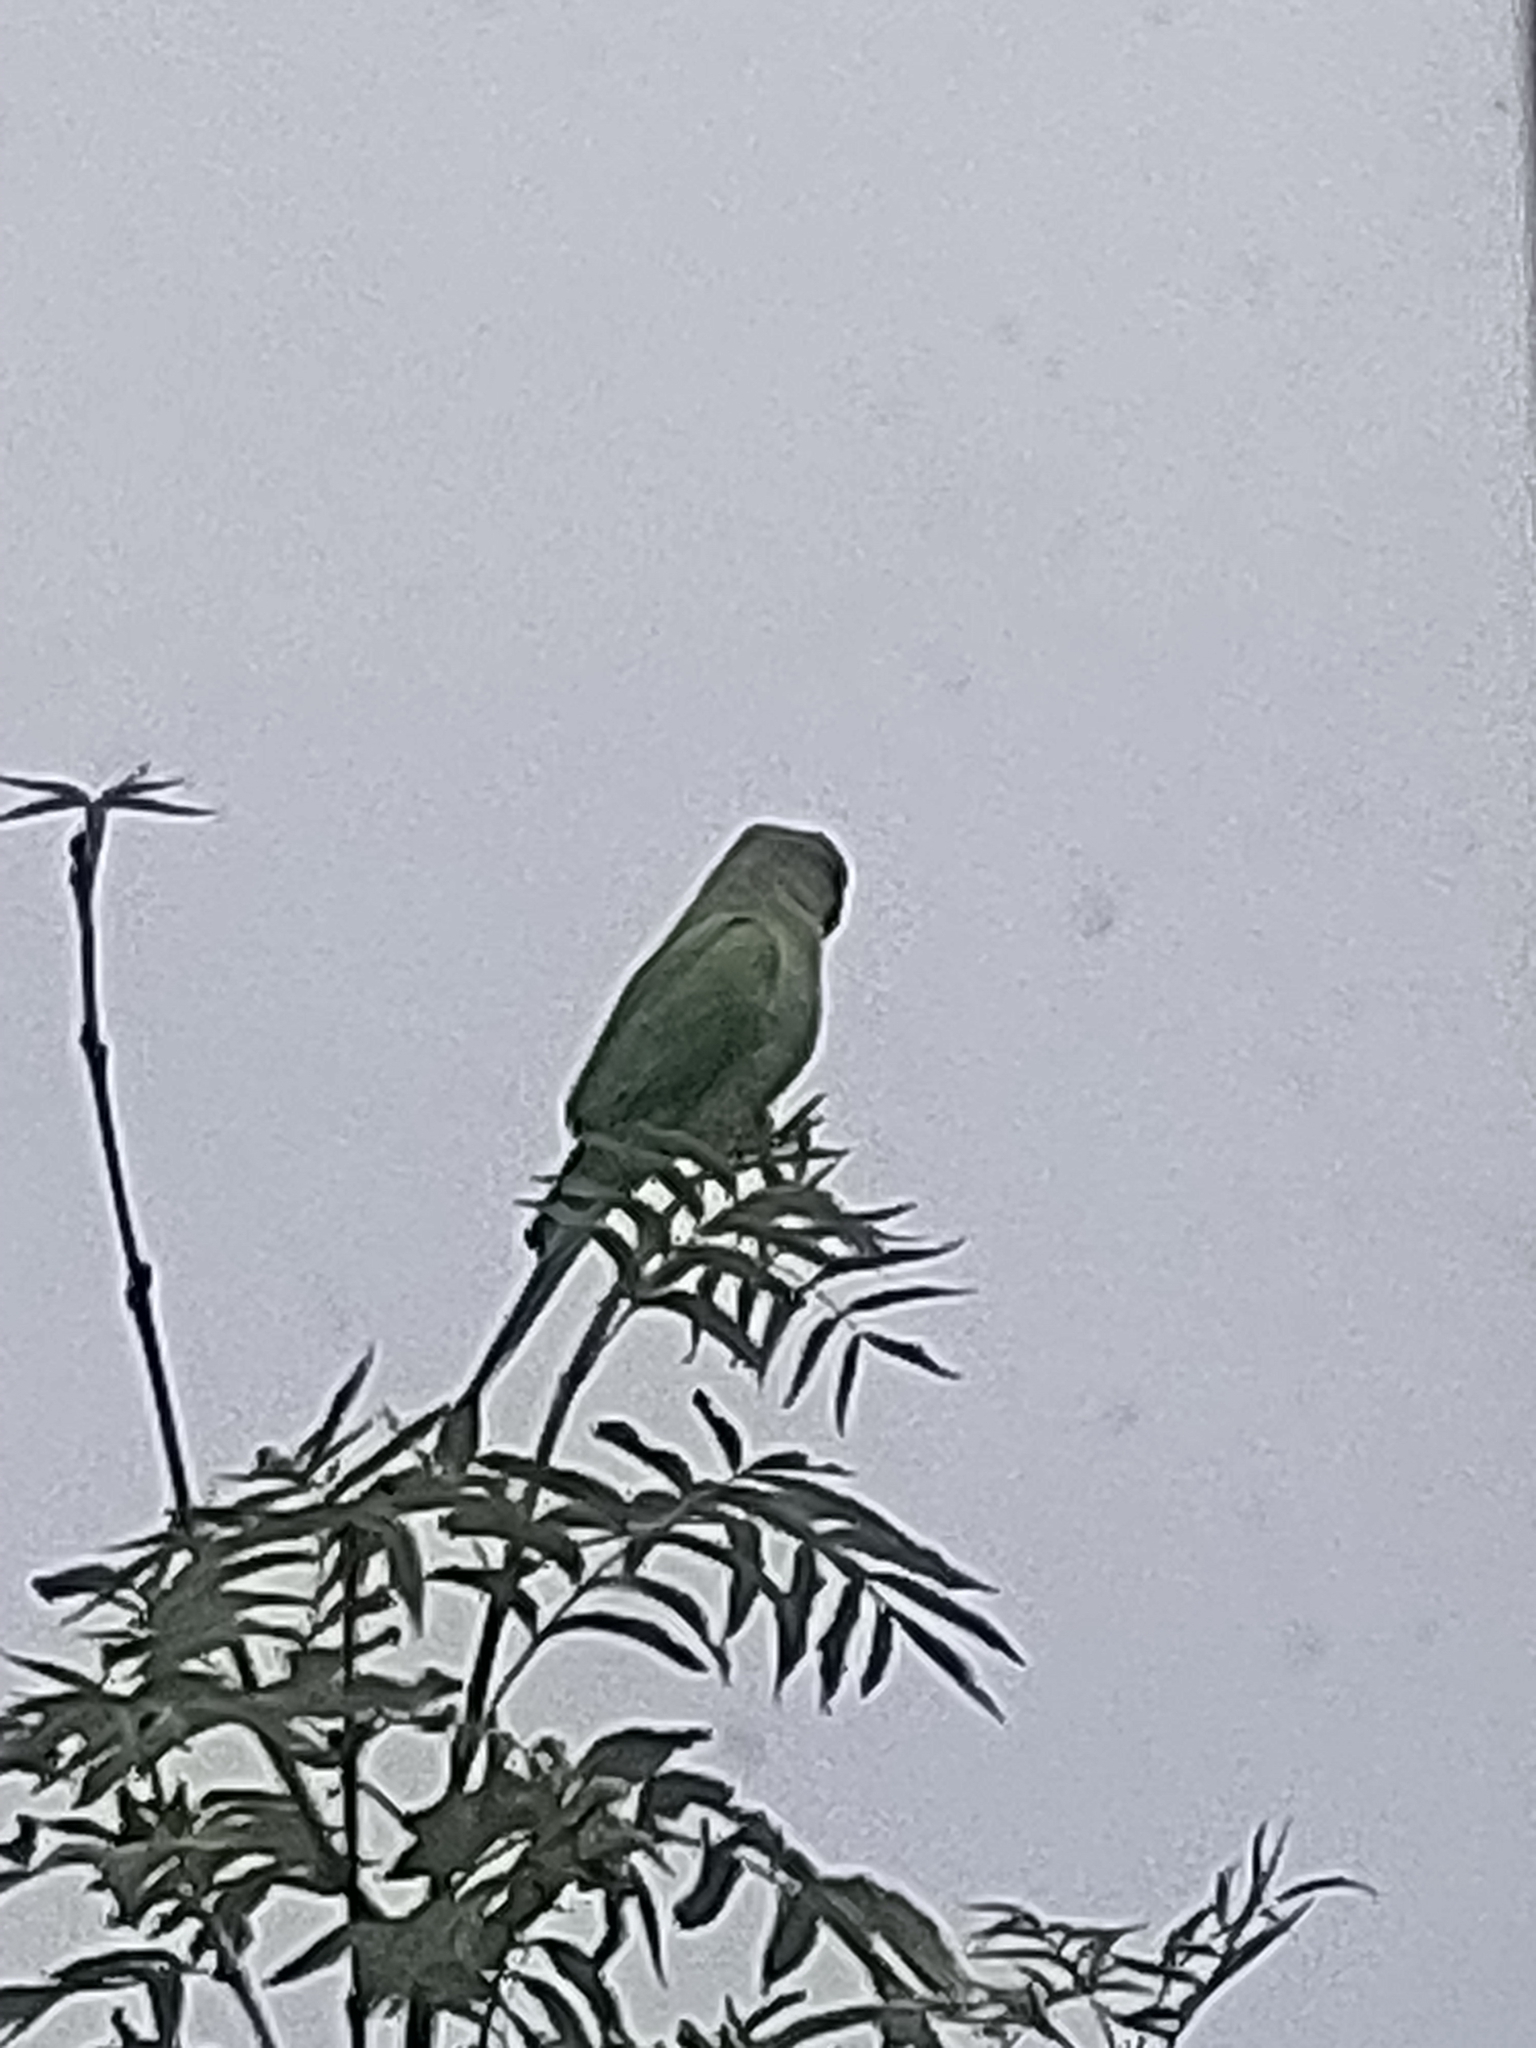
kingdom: Animalia
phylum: Chordata
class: Aves
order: Psittaciformes
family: Psittacidae
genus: Psittacula
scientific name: Psittacula krameri
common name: Rose-ringed parakeet
